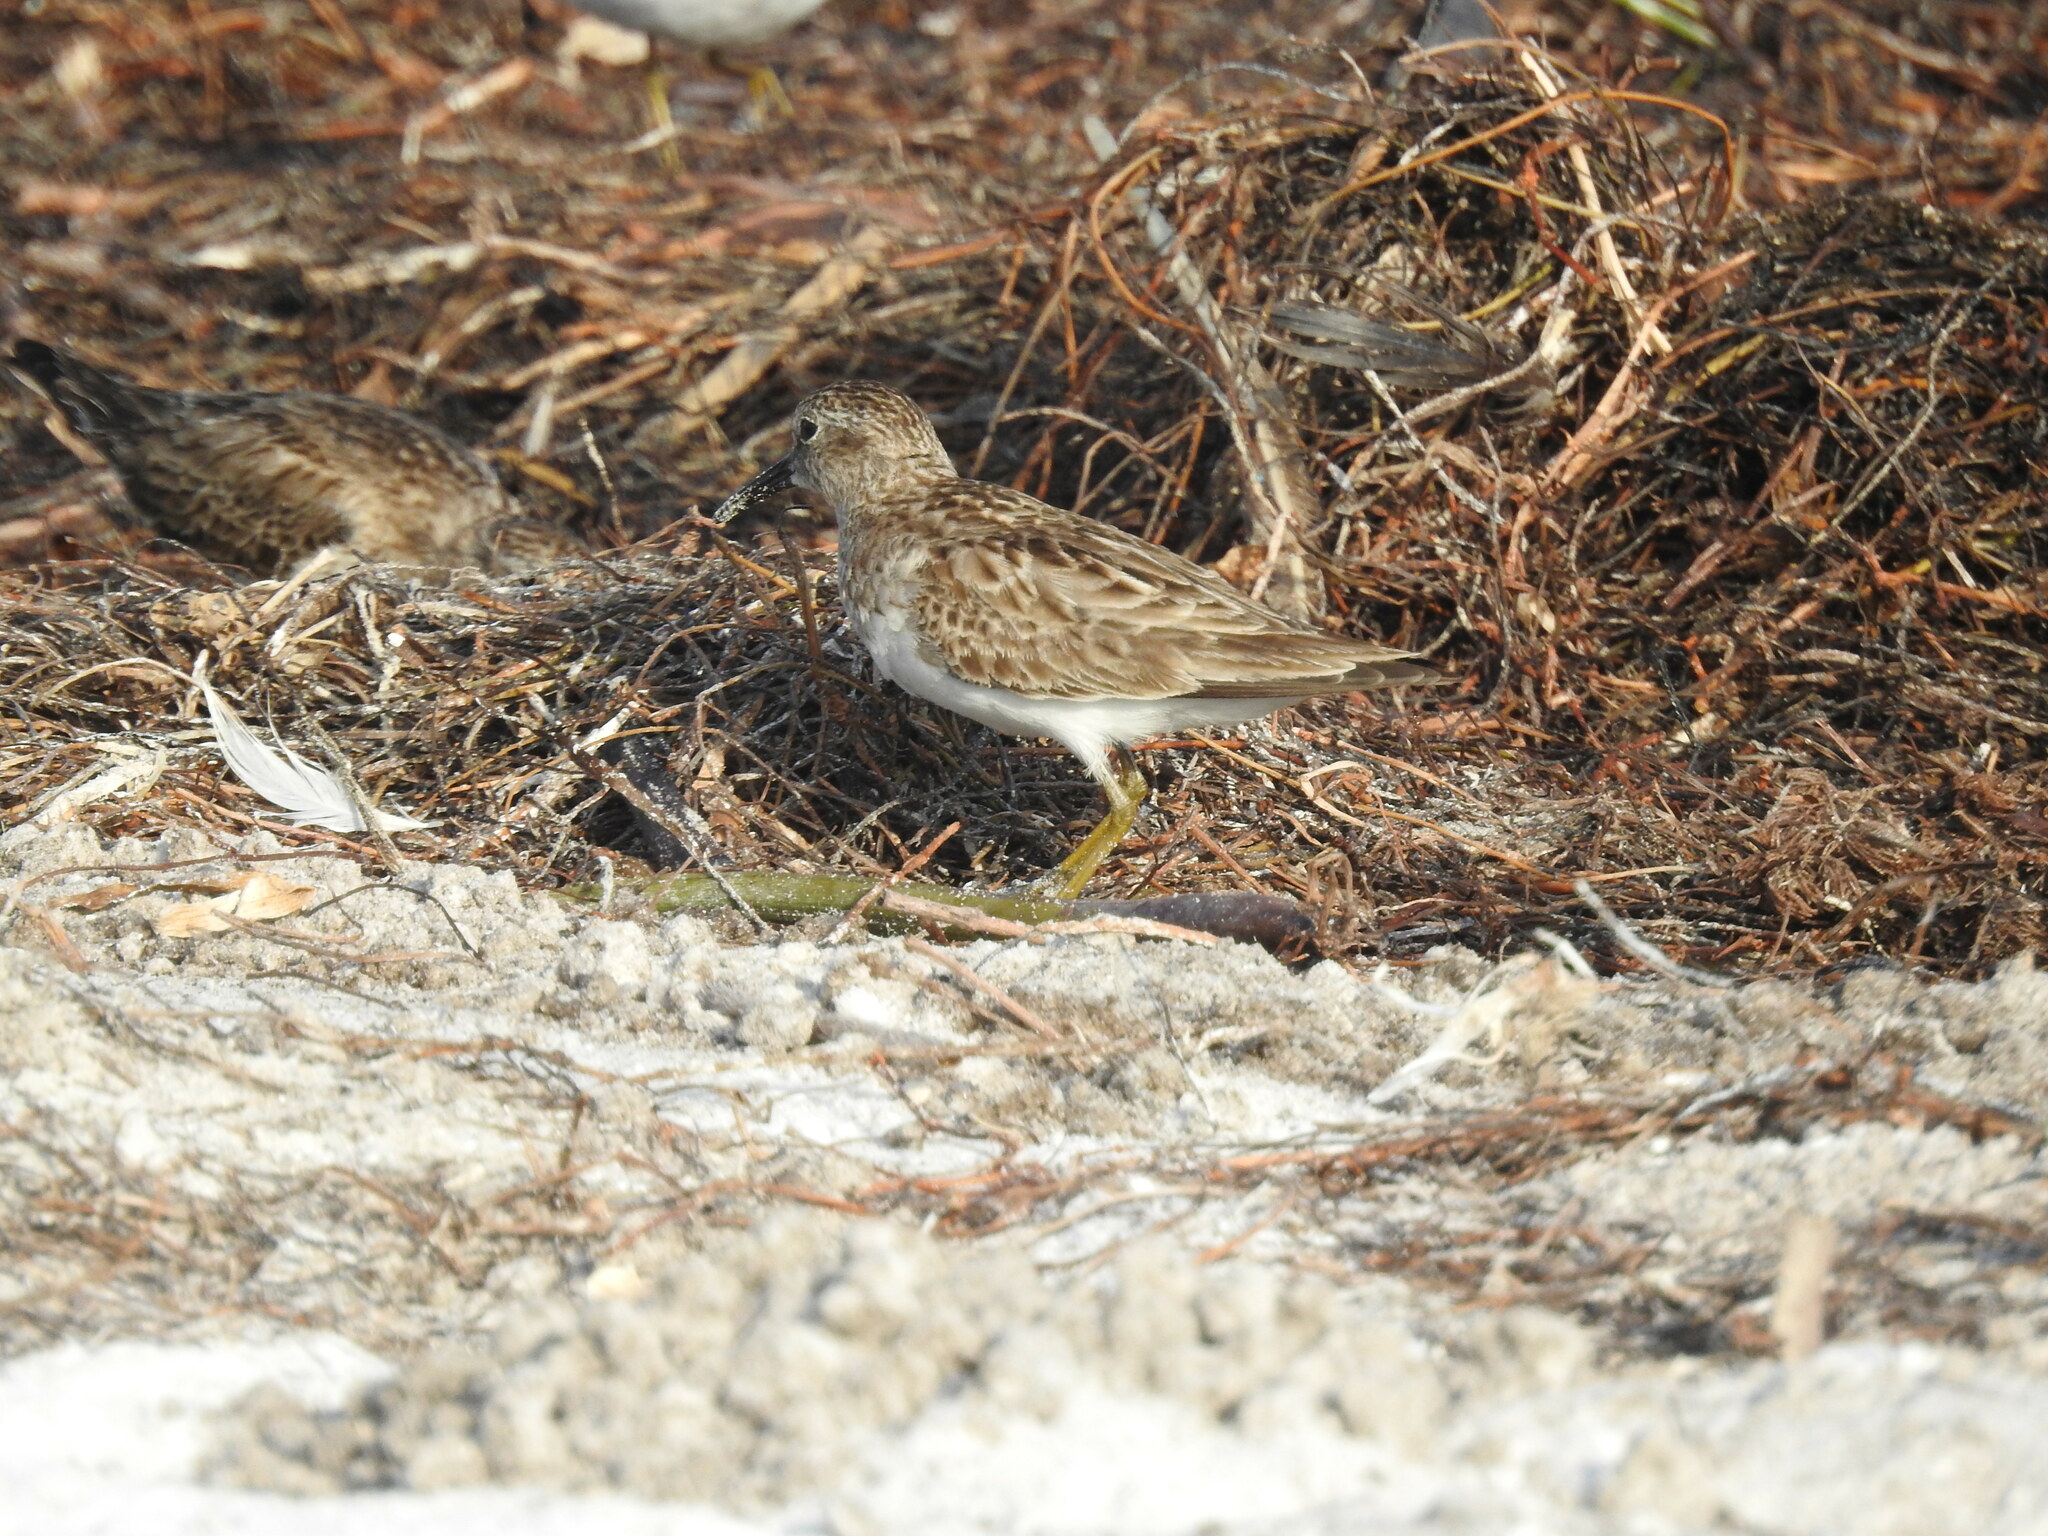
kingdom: Animalia
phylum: Chordata
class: Aves
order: Charadriiformes
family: Scolopacidae
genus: Calidris
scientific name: Calidris minutilla
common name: Least sandpiper
